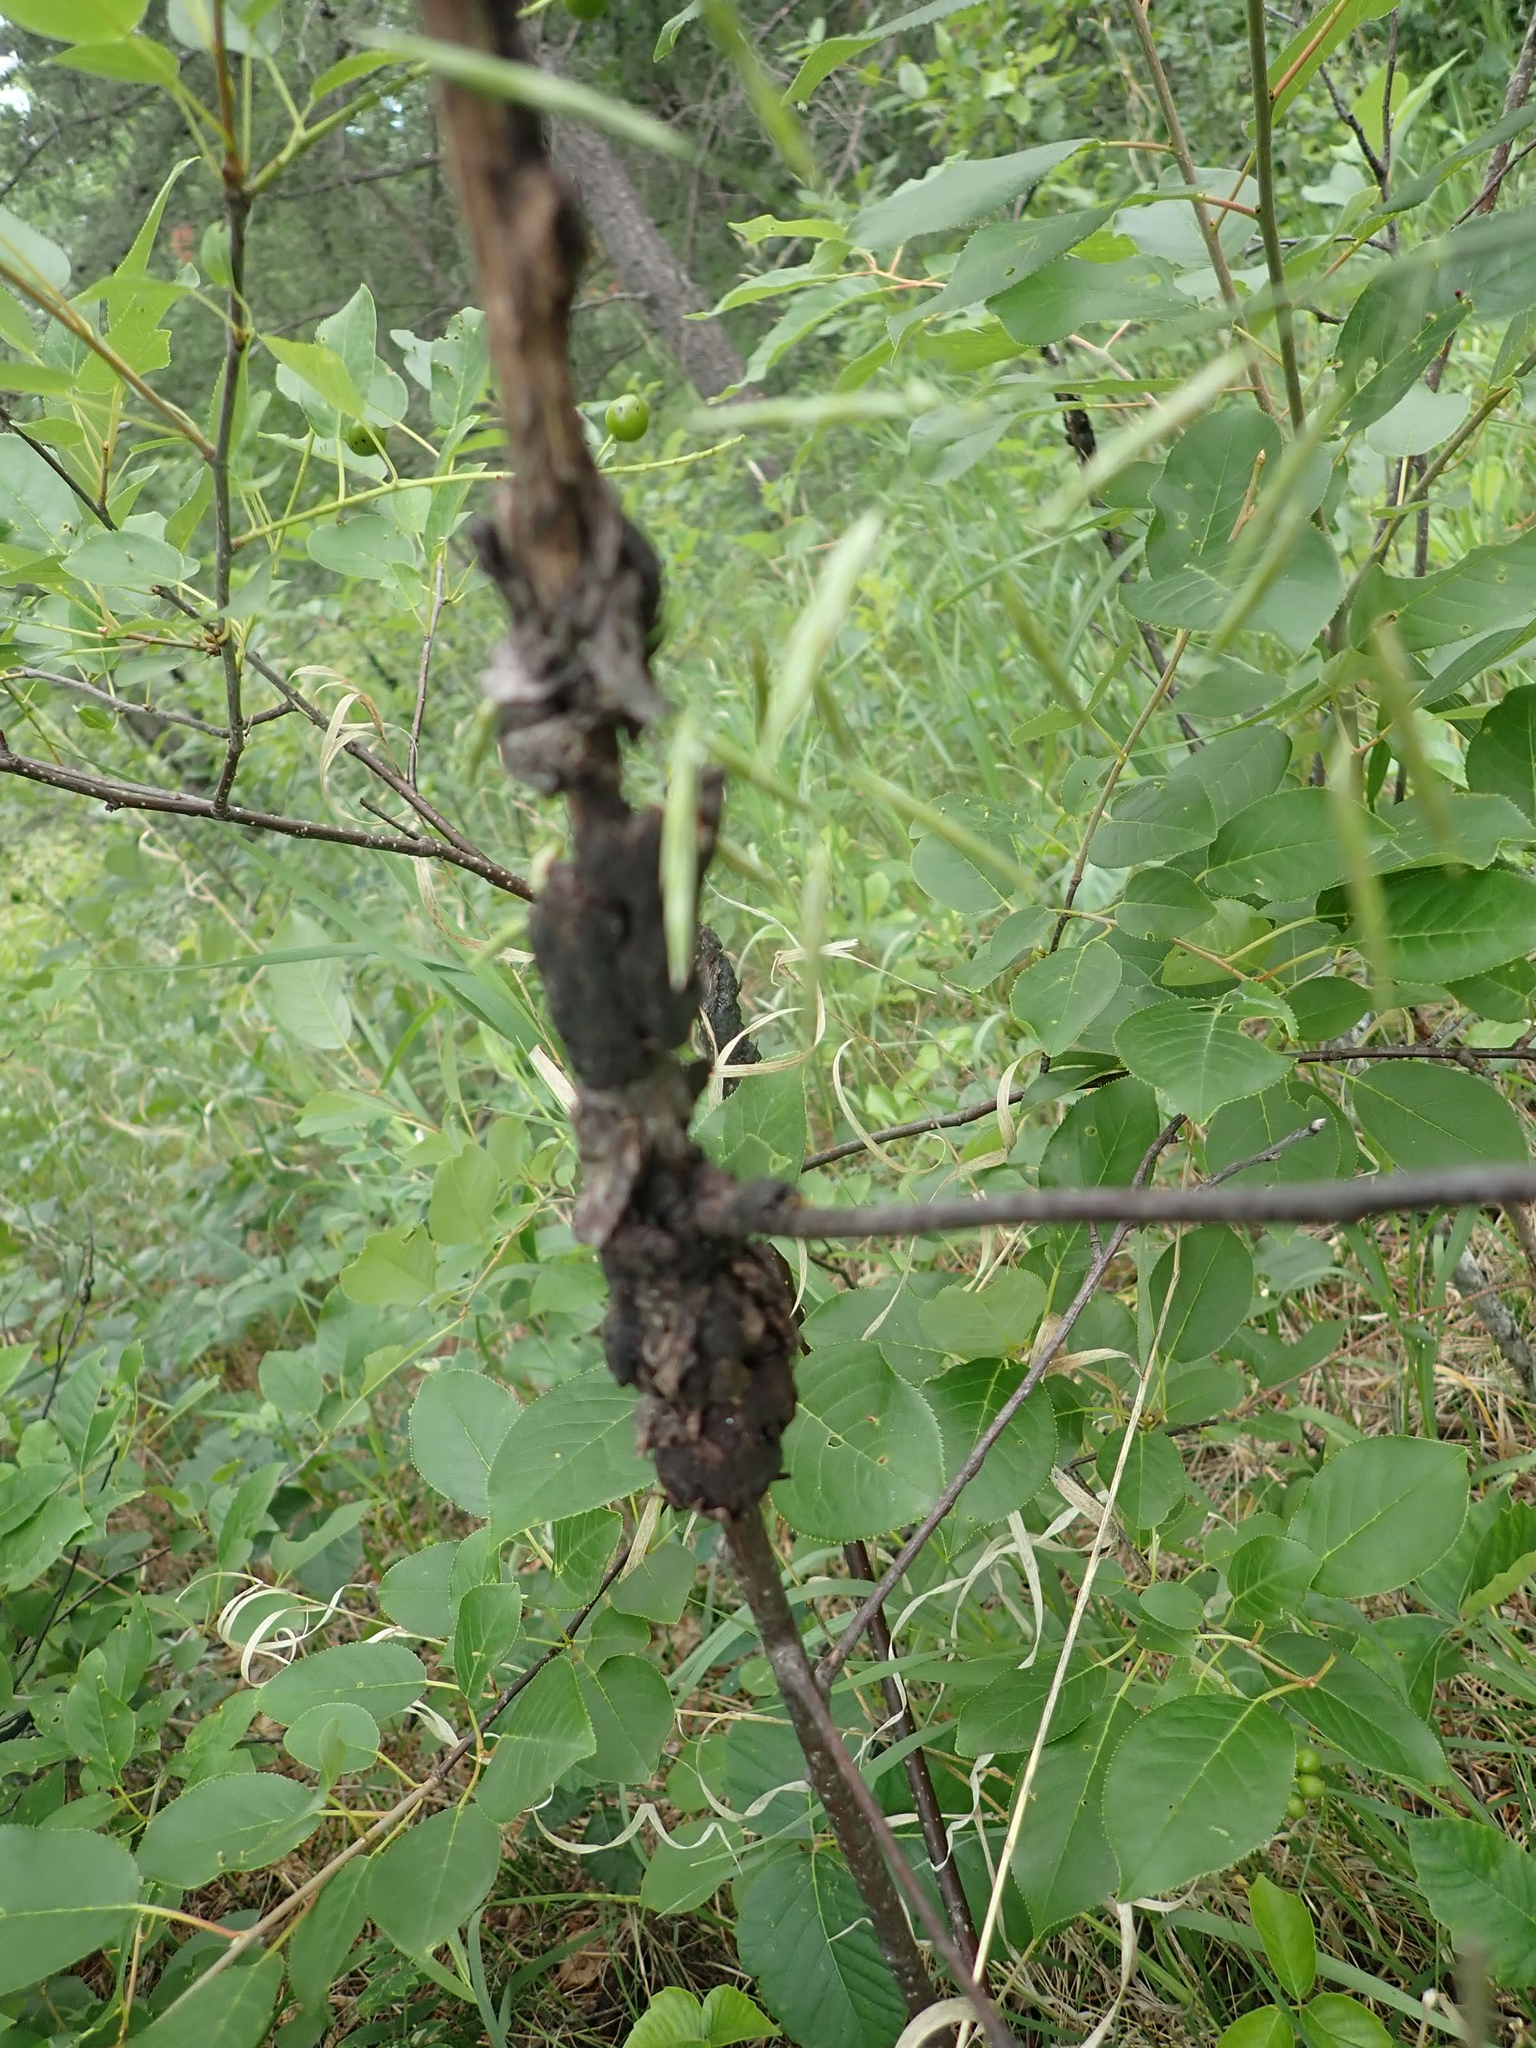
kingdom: Fungi
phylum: Ascomycota
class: Dothideomycetes
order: Venturiales
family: Venturiaceae
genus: Apiosporina
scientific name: Apiosporina morbosa
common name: Black knot
